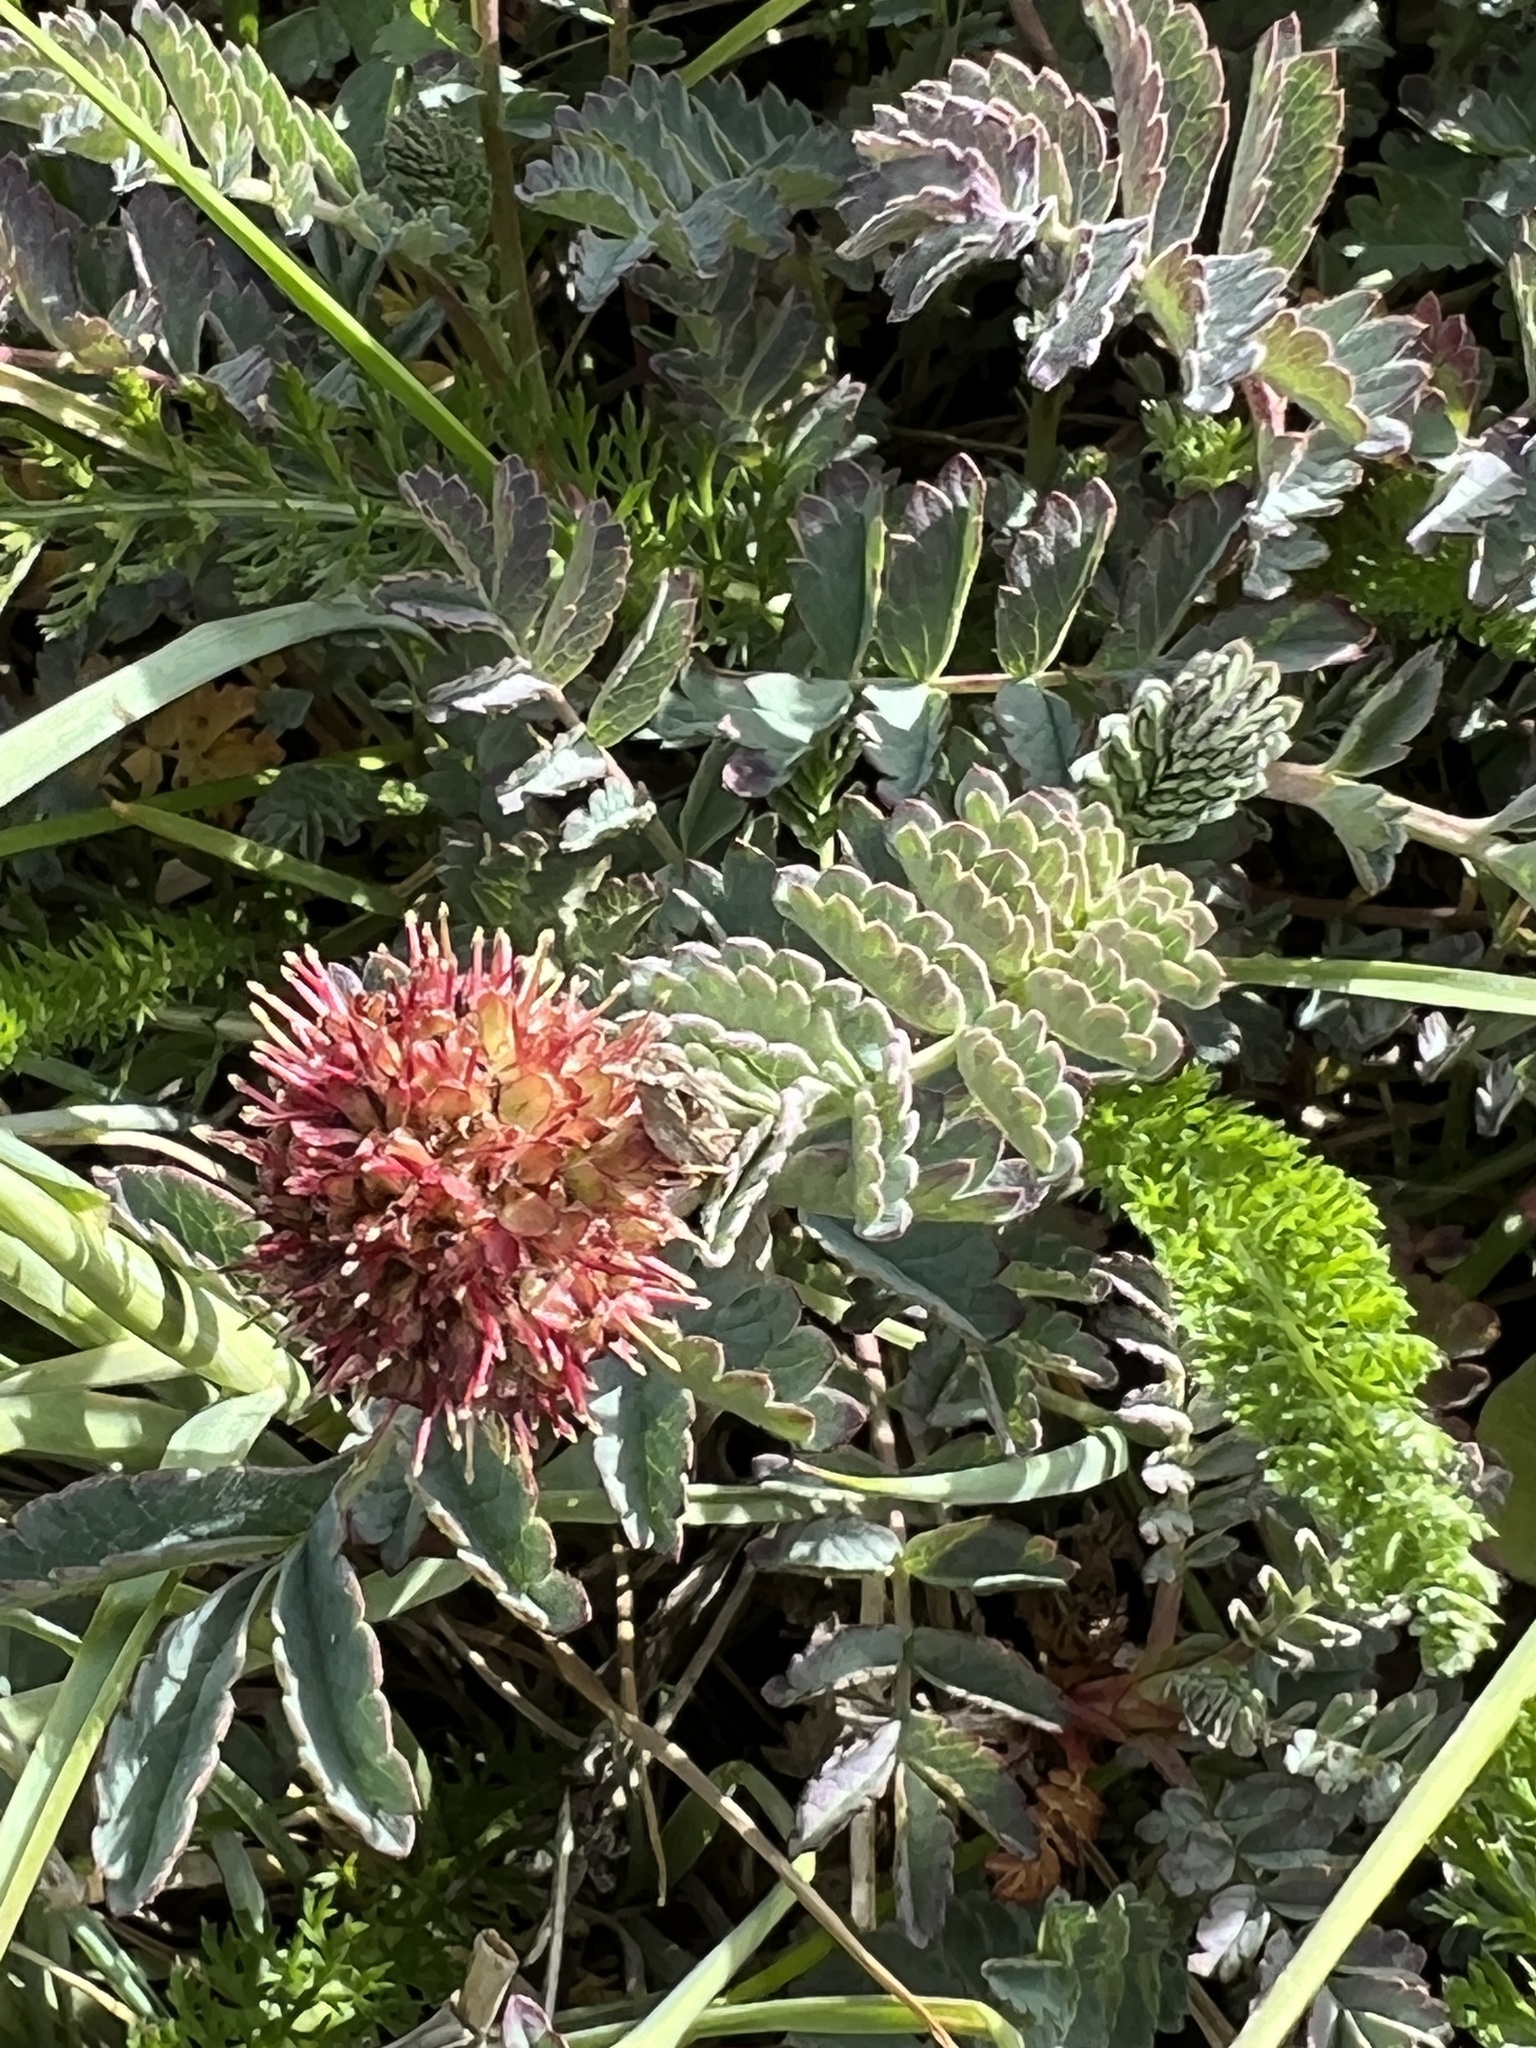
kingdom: Plantae
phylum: Tracheophyta
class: Magnoliopsida
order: Rosales
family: Rosaceae
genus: Acaena
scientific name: Acaena magellanica
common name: New zealand burr
